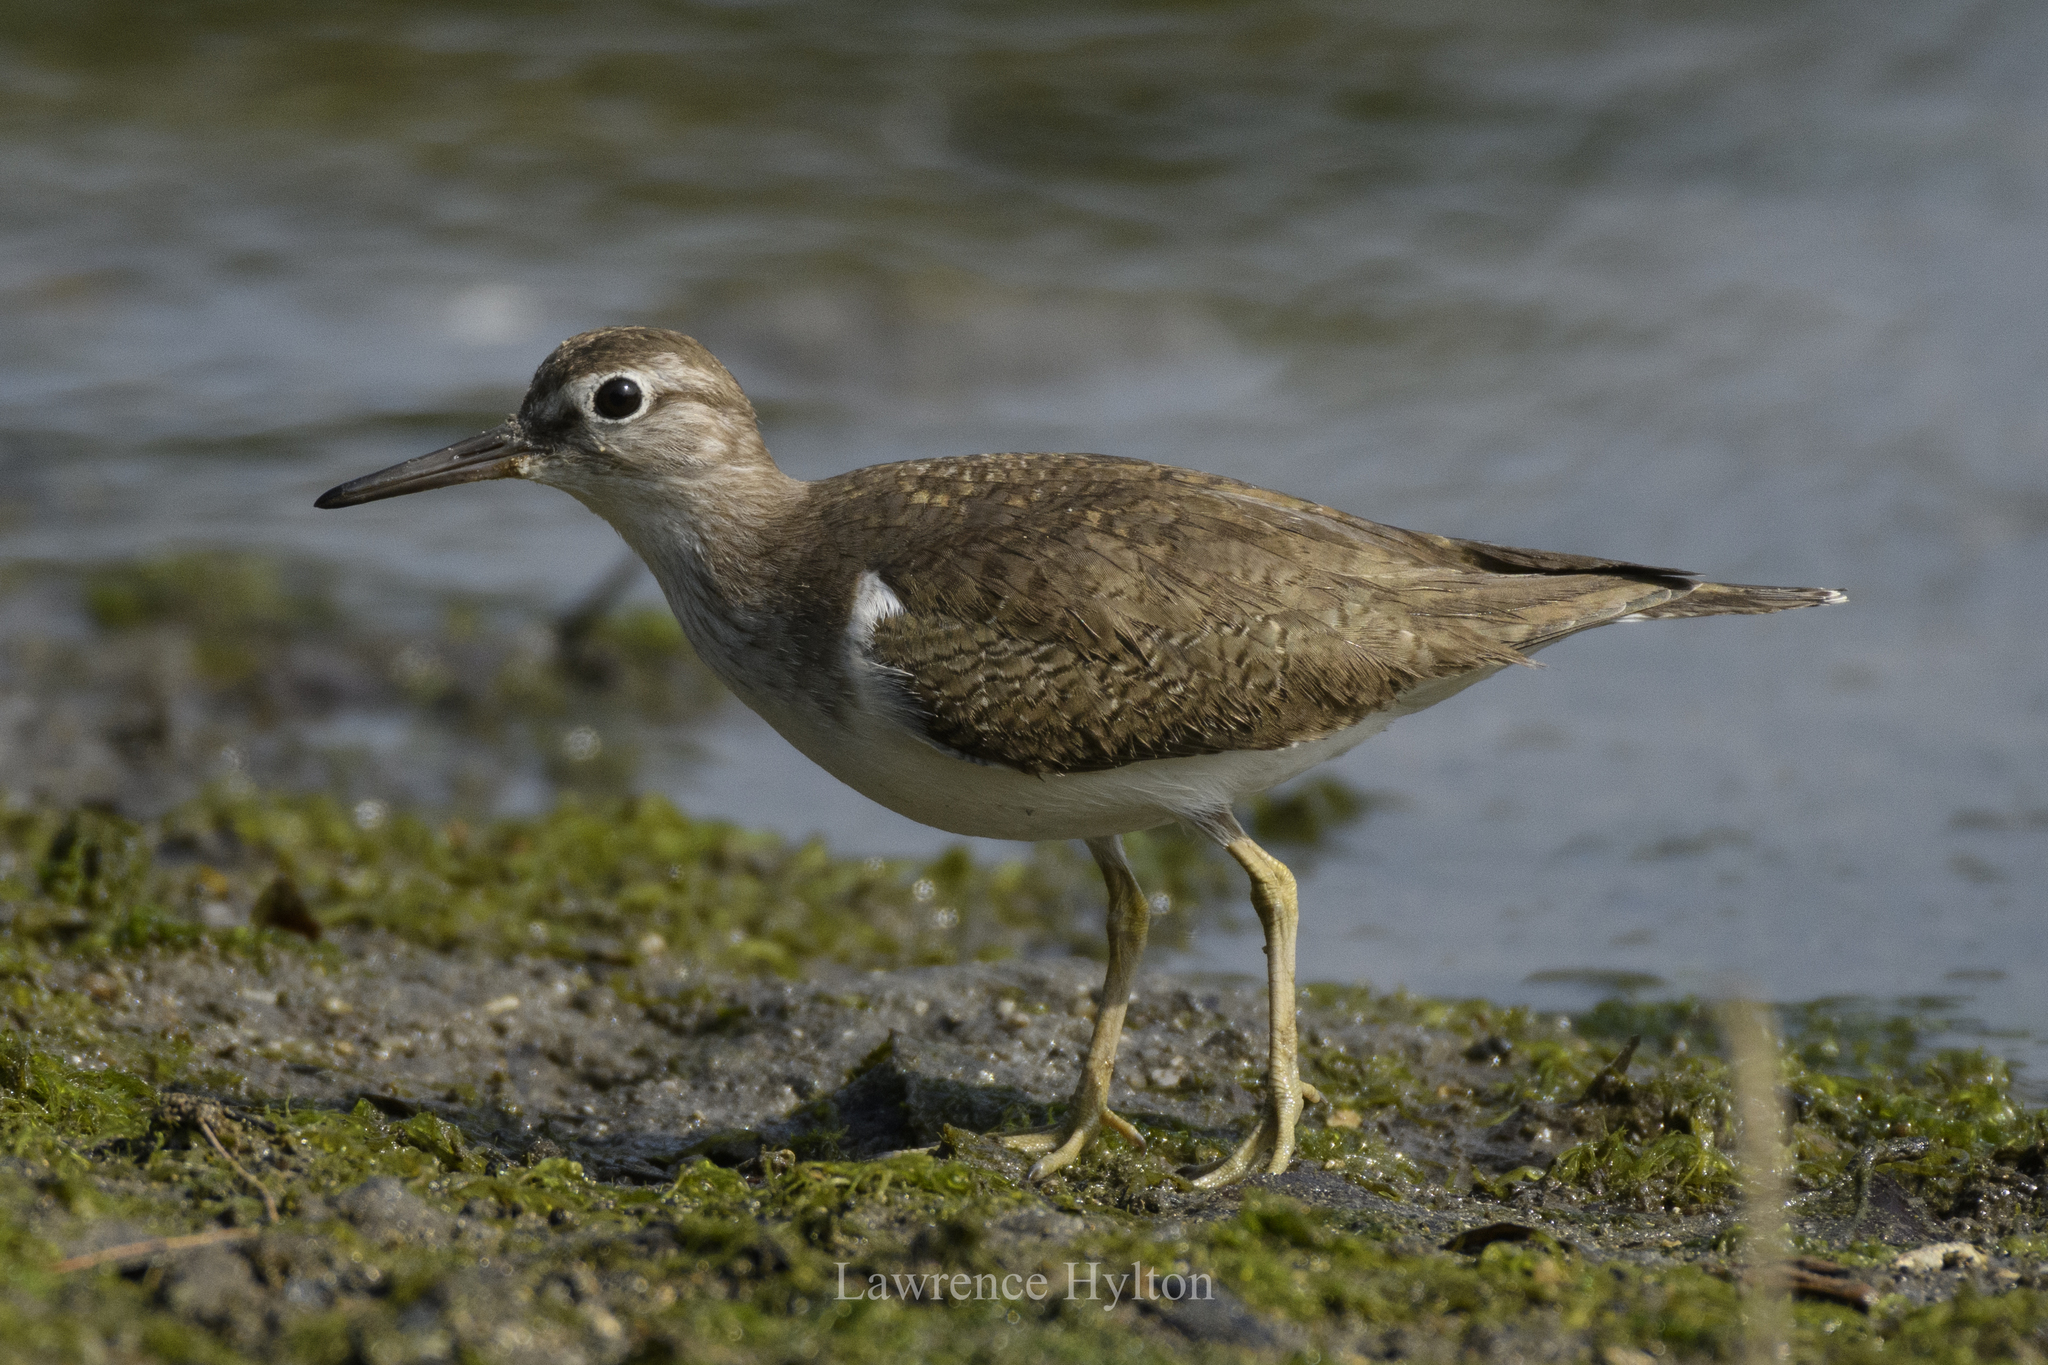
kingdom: Animalia
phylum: Chordata
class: Aves
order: Charadriiformes
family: Scolopacidae
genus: Actitis
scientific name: Actitis hypoleucos
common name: Common sandpiper
